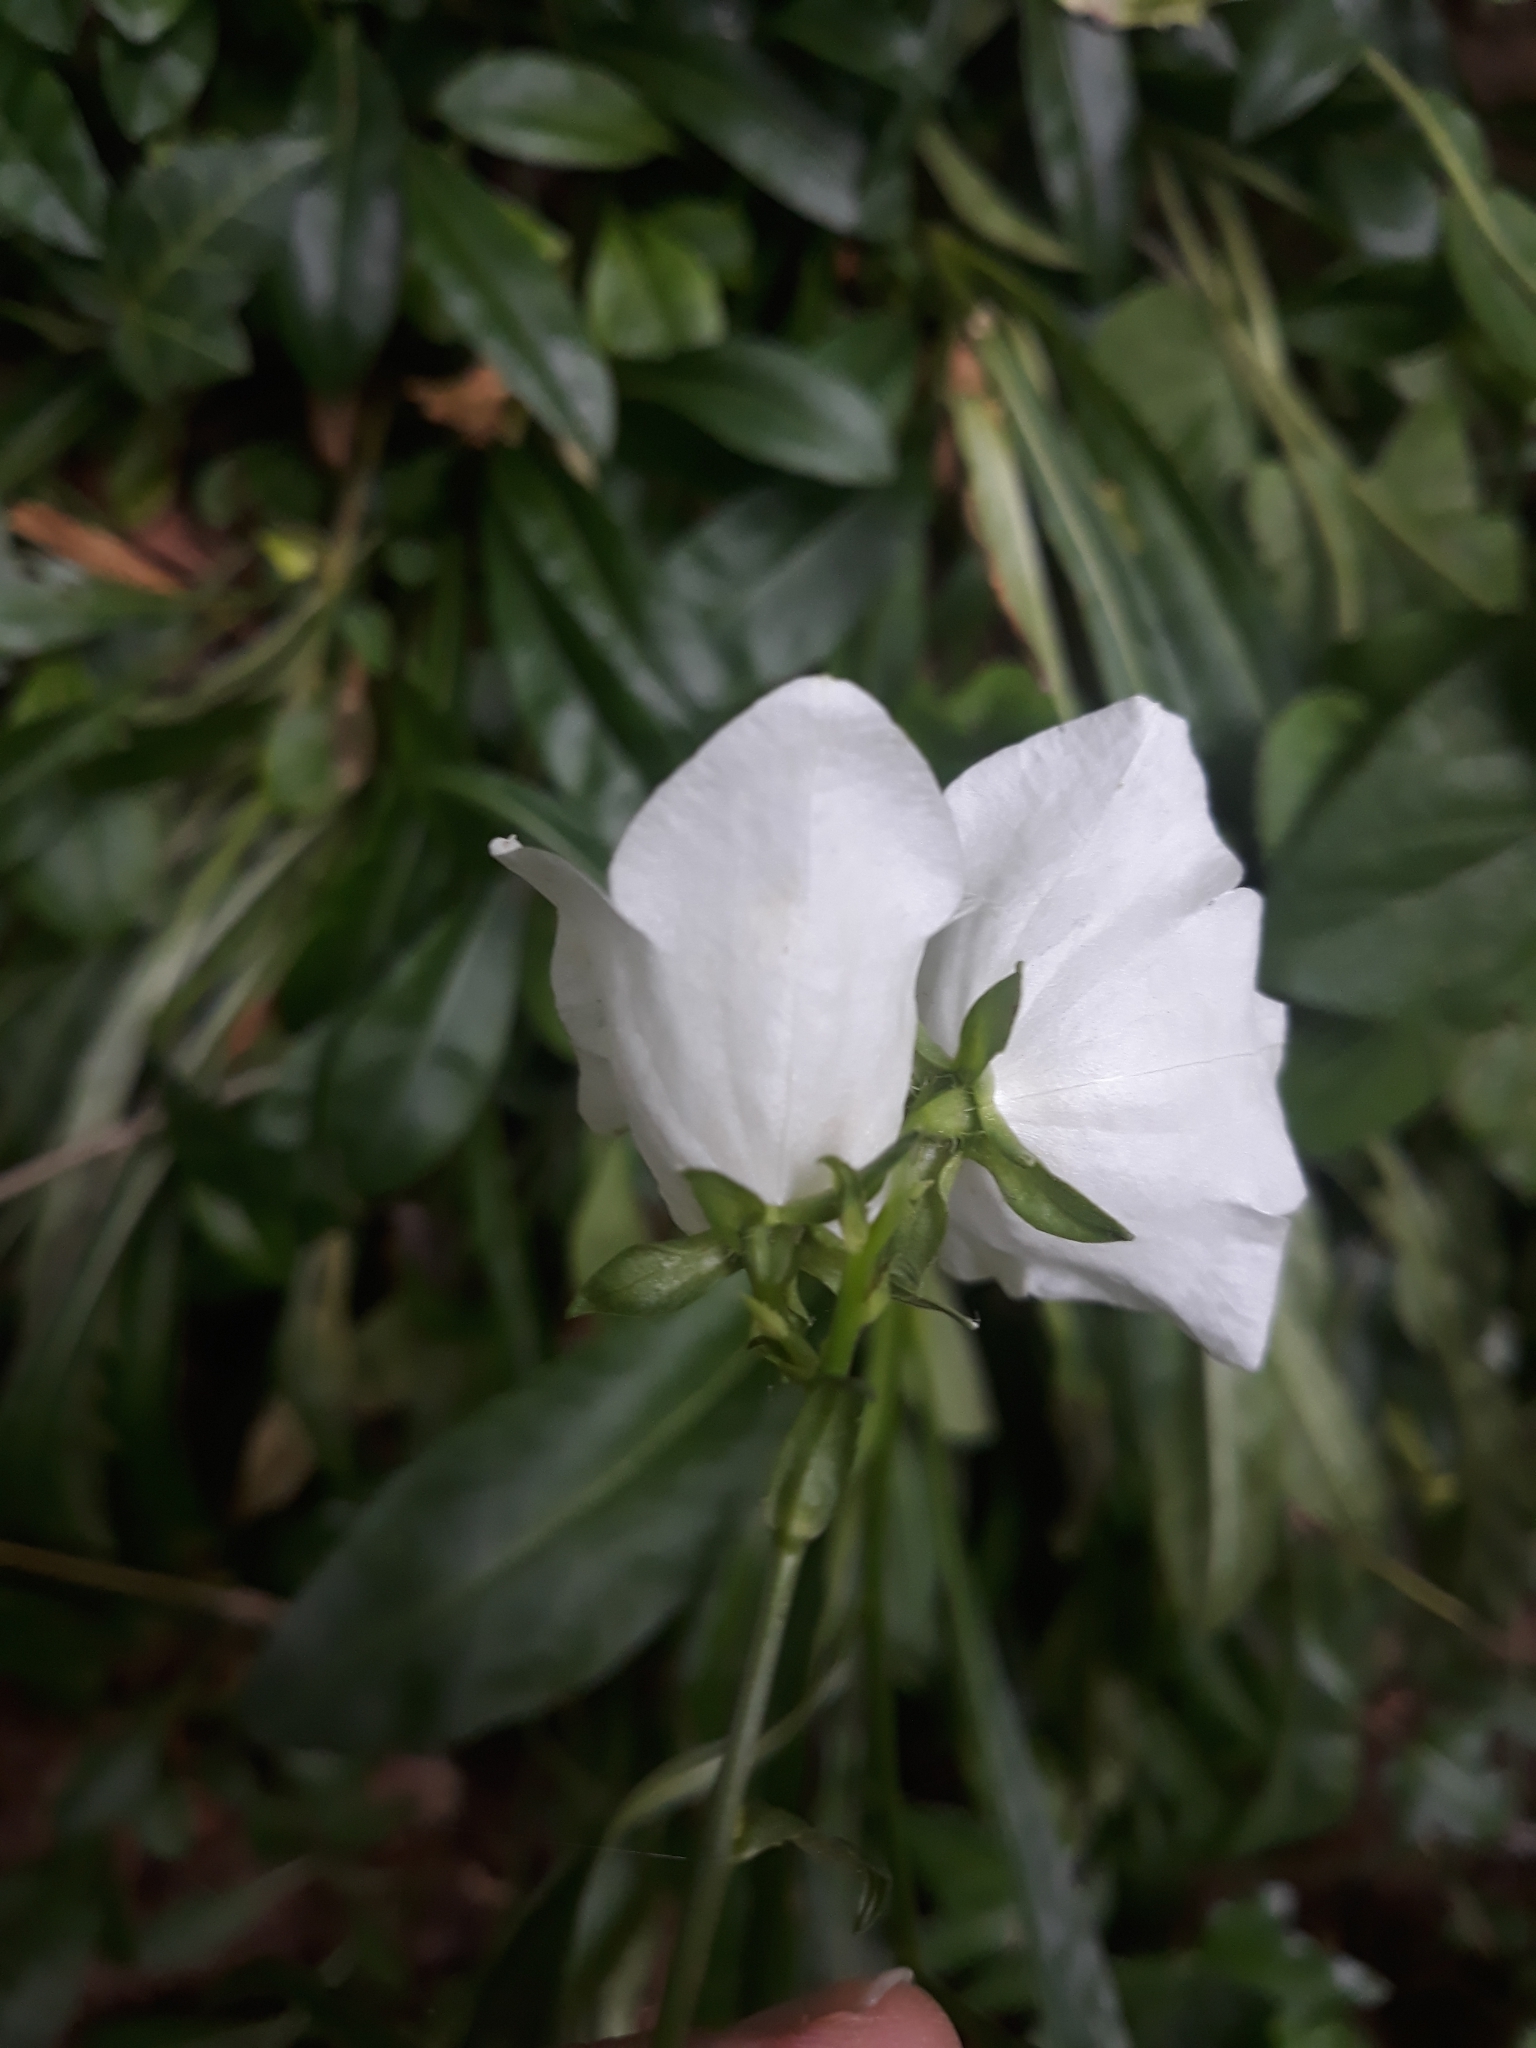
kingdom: Plantae
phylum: Tracheophyta
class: Magnoliopsida
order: Asterales
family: Campanulaceae
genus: Campanula
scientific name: Campanula persicifolia
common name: Peach-leaved bellflower
